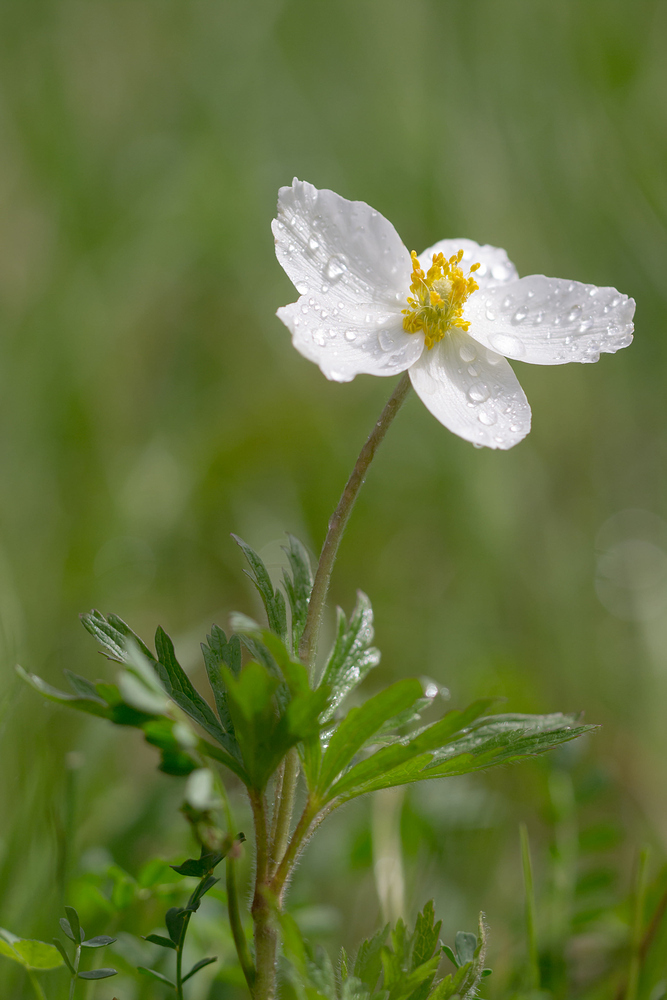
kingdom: Plantae
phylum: Tracheophyta
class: Magnoliopsida
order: Ranunculales
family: Ranunculaceae
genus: Anemone
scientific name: Anemone sylvestris
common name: Snowdrop anemone
